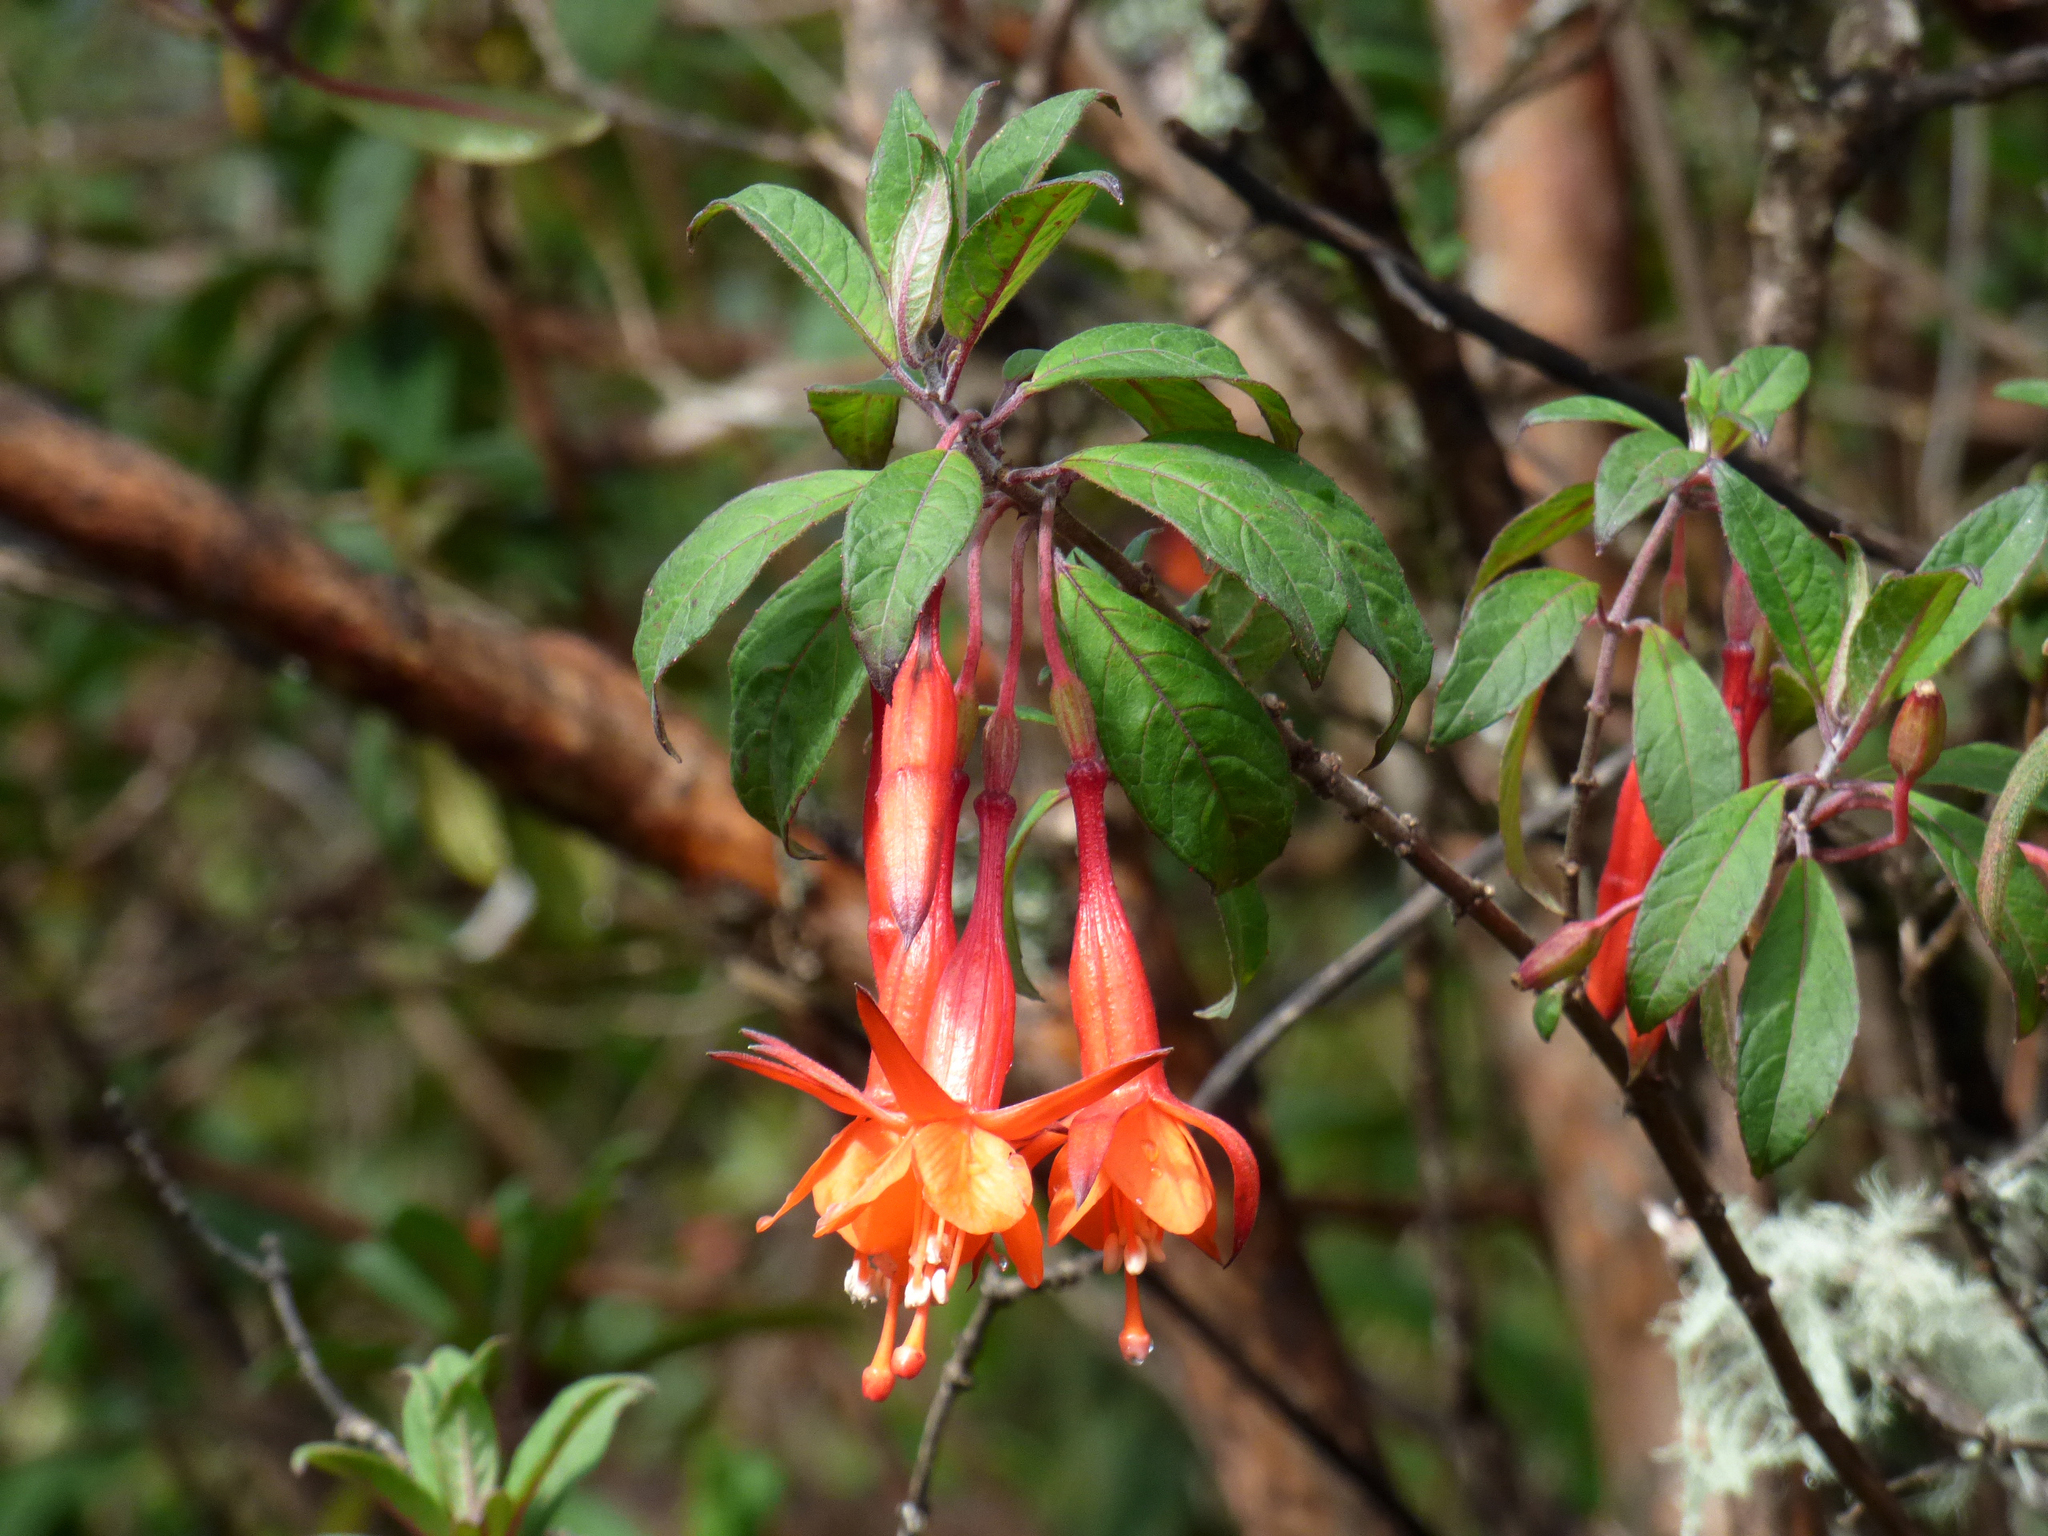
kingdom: Plantae
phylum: Tracheophyta
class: Magnoliopsida
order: Myrtales
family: Onagraceae
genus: Fuchsia
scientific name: Fuchsia loxensis
